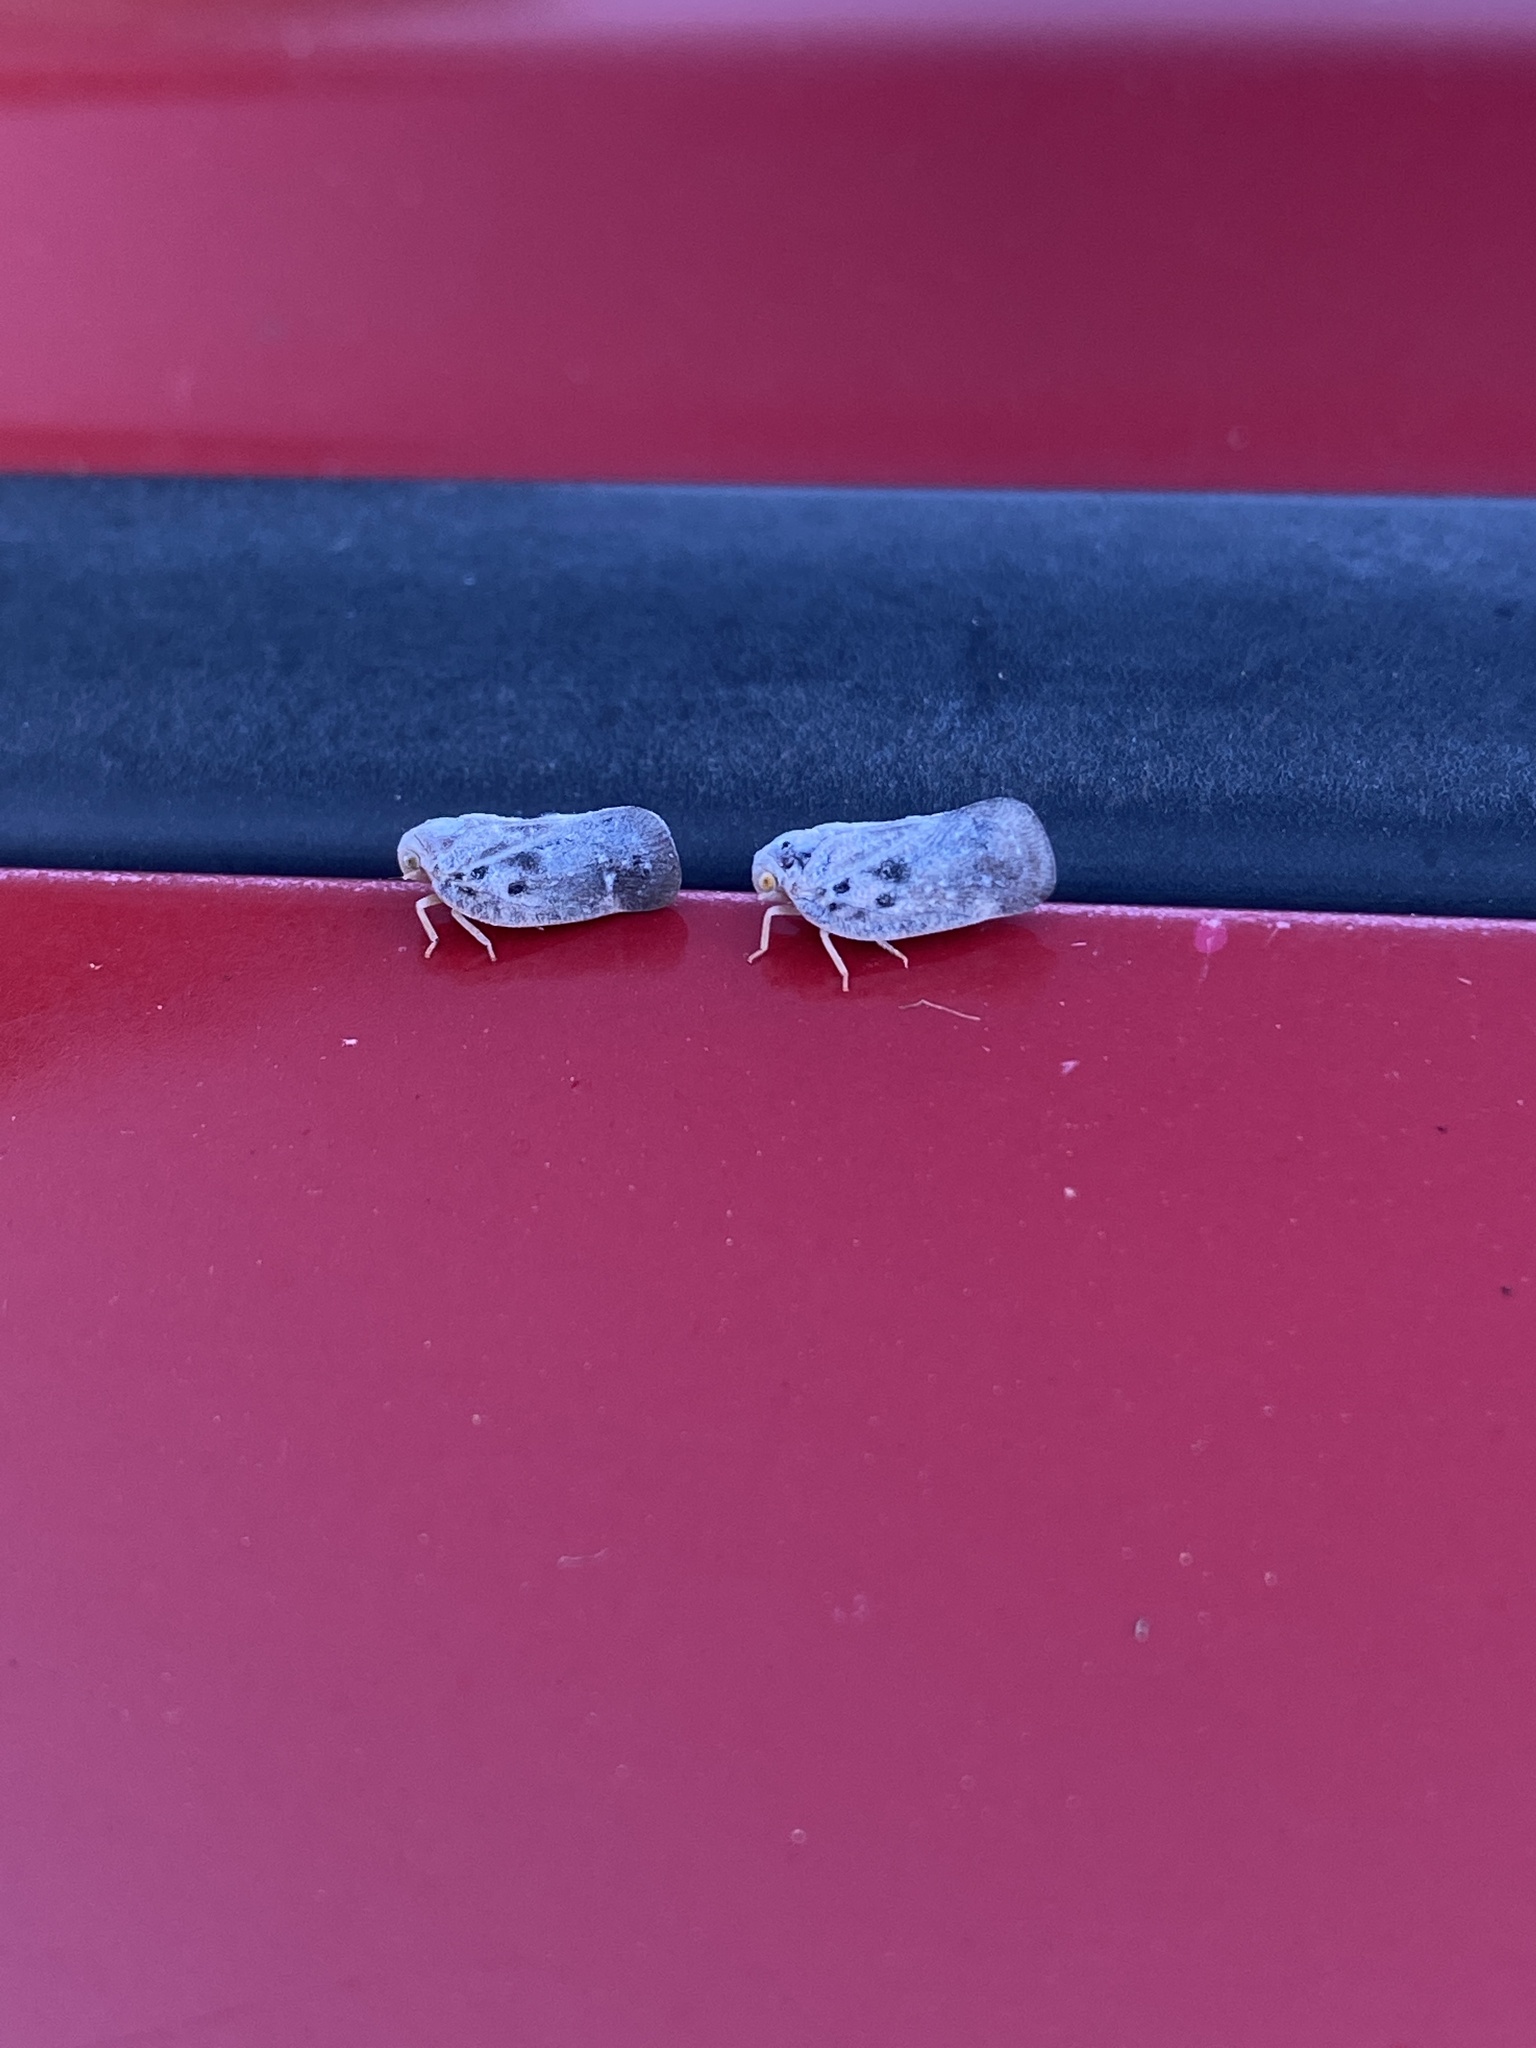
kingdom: Animalia
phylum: Arthropoda
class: Insecta
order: Hemiptera
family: Flatidae
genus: Metcalfa
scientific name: Metcalfa pruinosa
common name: Citrus flatid planthopper
